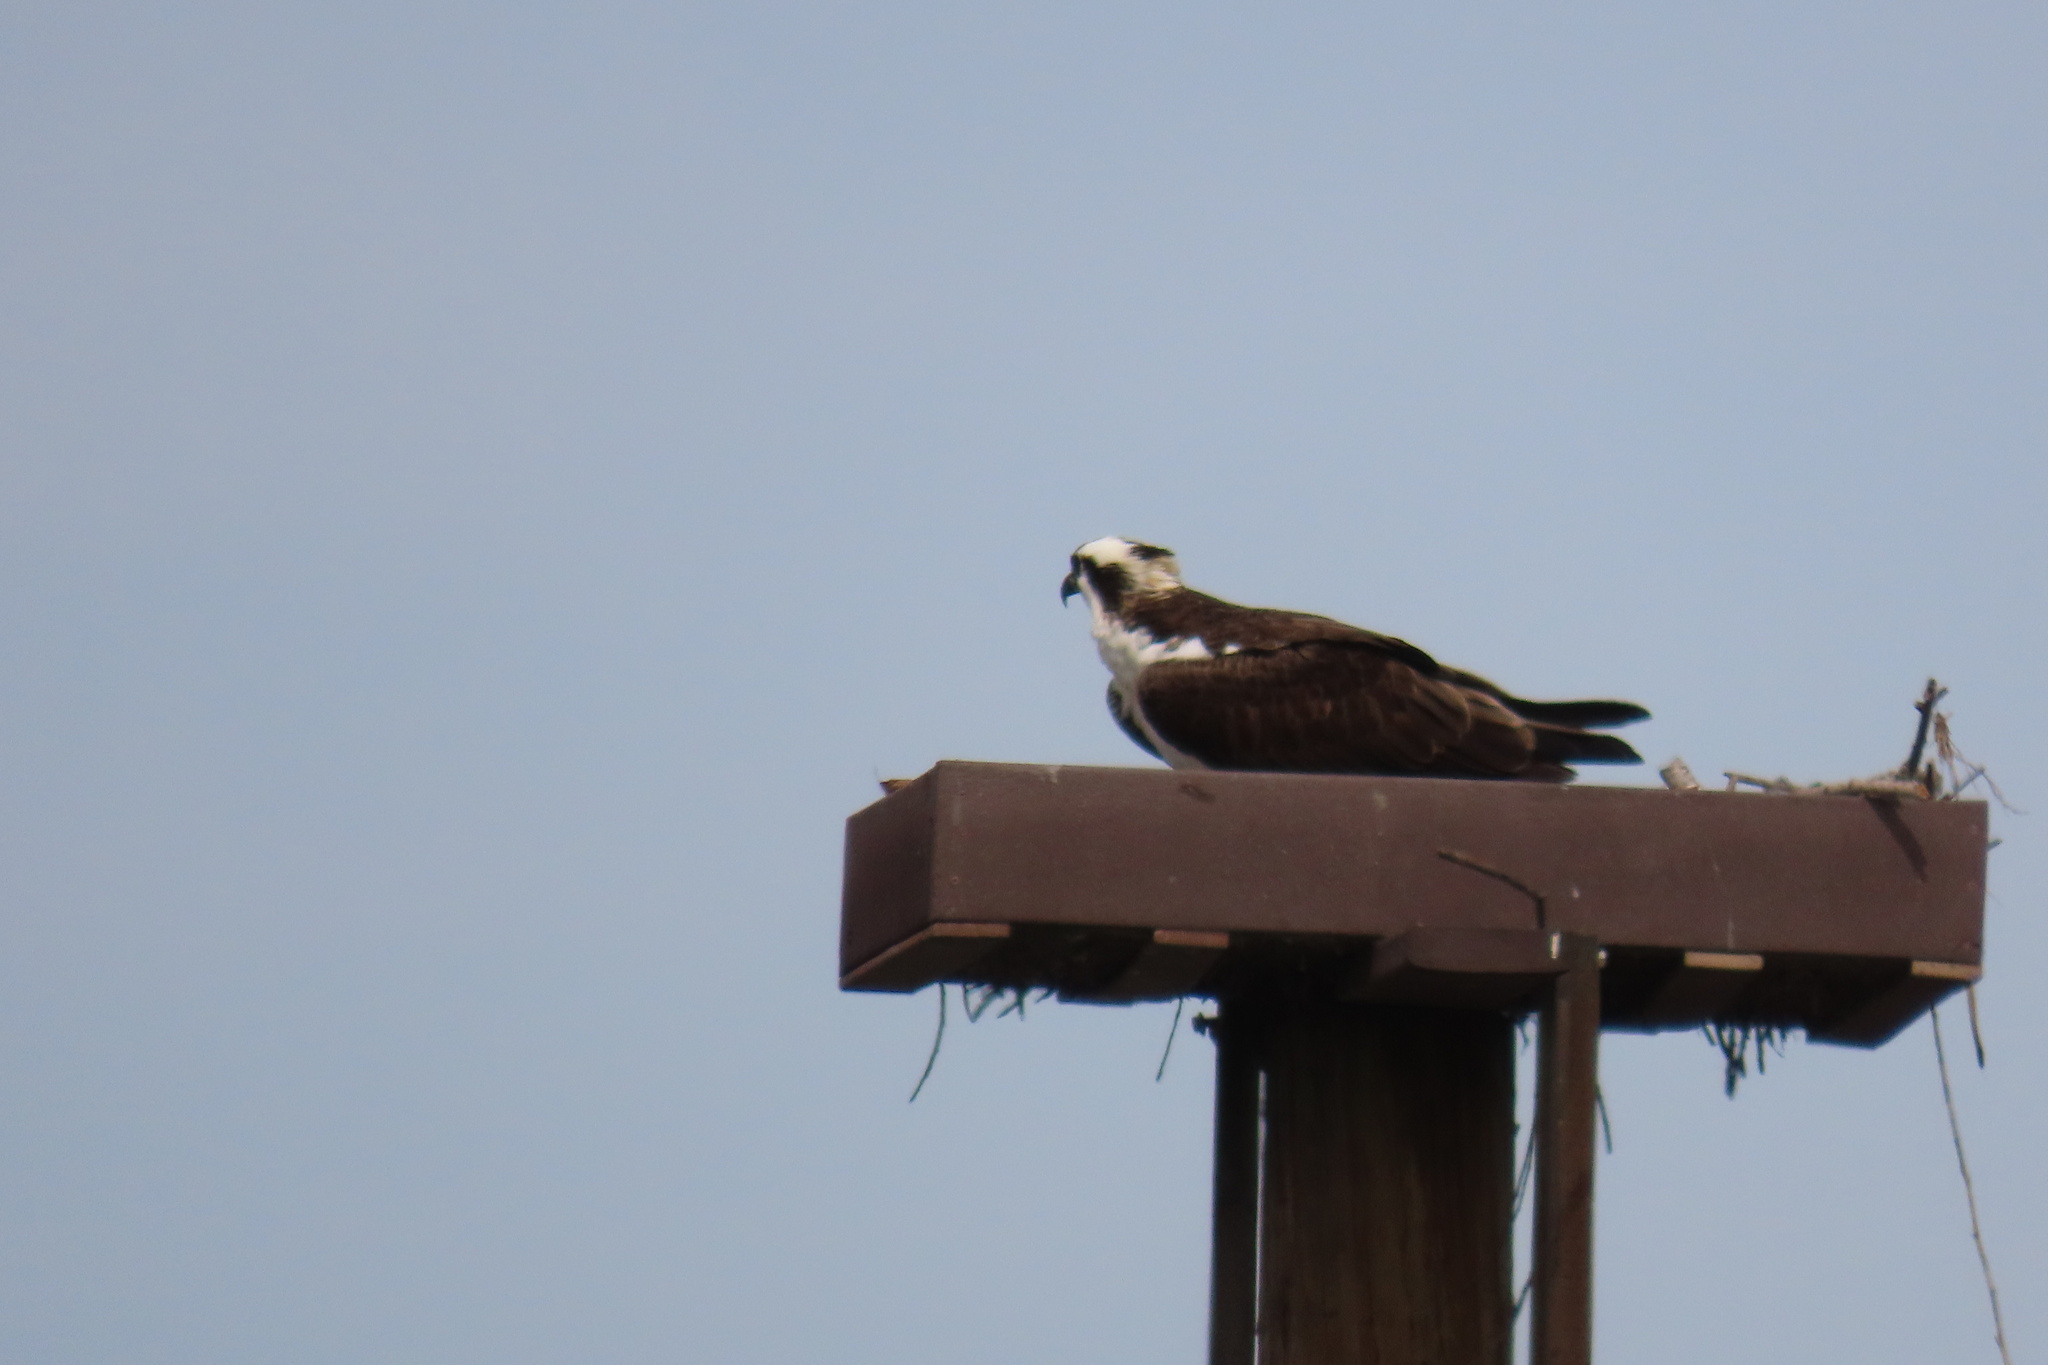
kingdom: Animalia
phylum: Chordata
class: Aves
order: Accipitriformes
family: Pandionidae
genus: Pandion
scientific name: Pandion haliaetus
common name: Osprey
